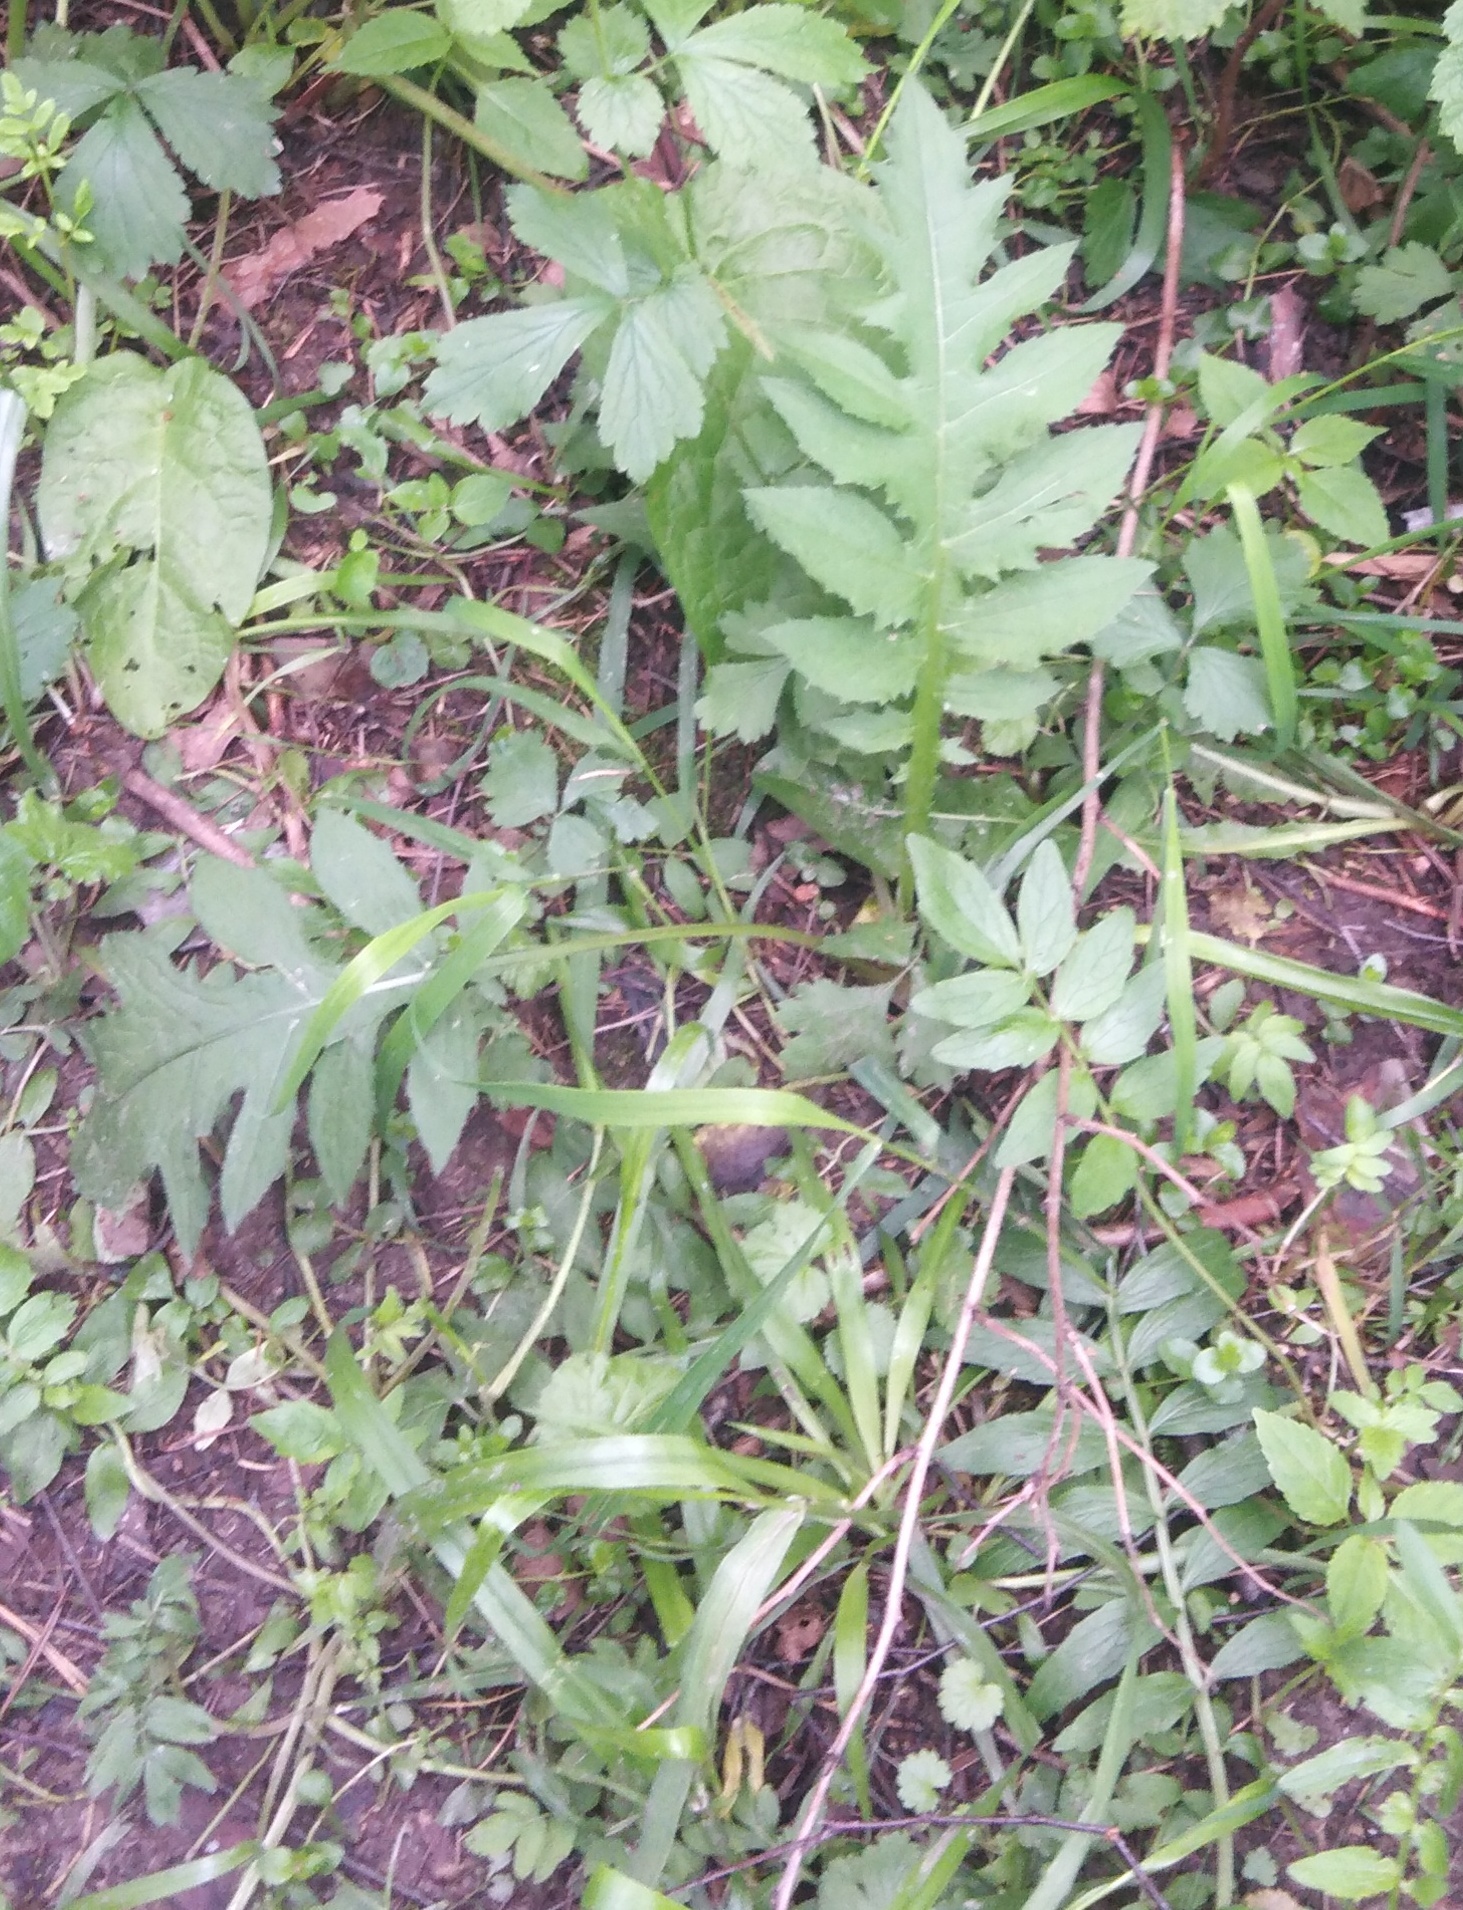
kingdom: Plantae
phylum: Tracheophyta
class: Magnoliopsida
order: Asterales
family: Asteraceae
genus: Cirsium
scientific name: Cirsium heterophyllum
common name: Melancholy thistle
